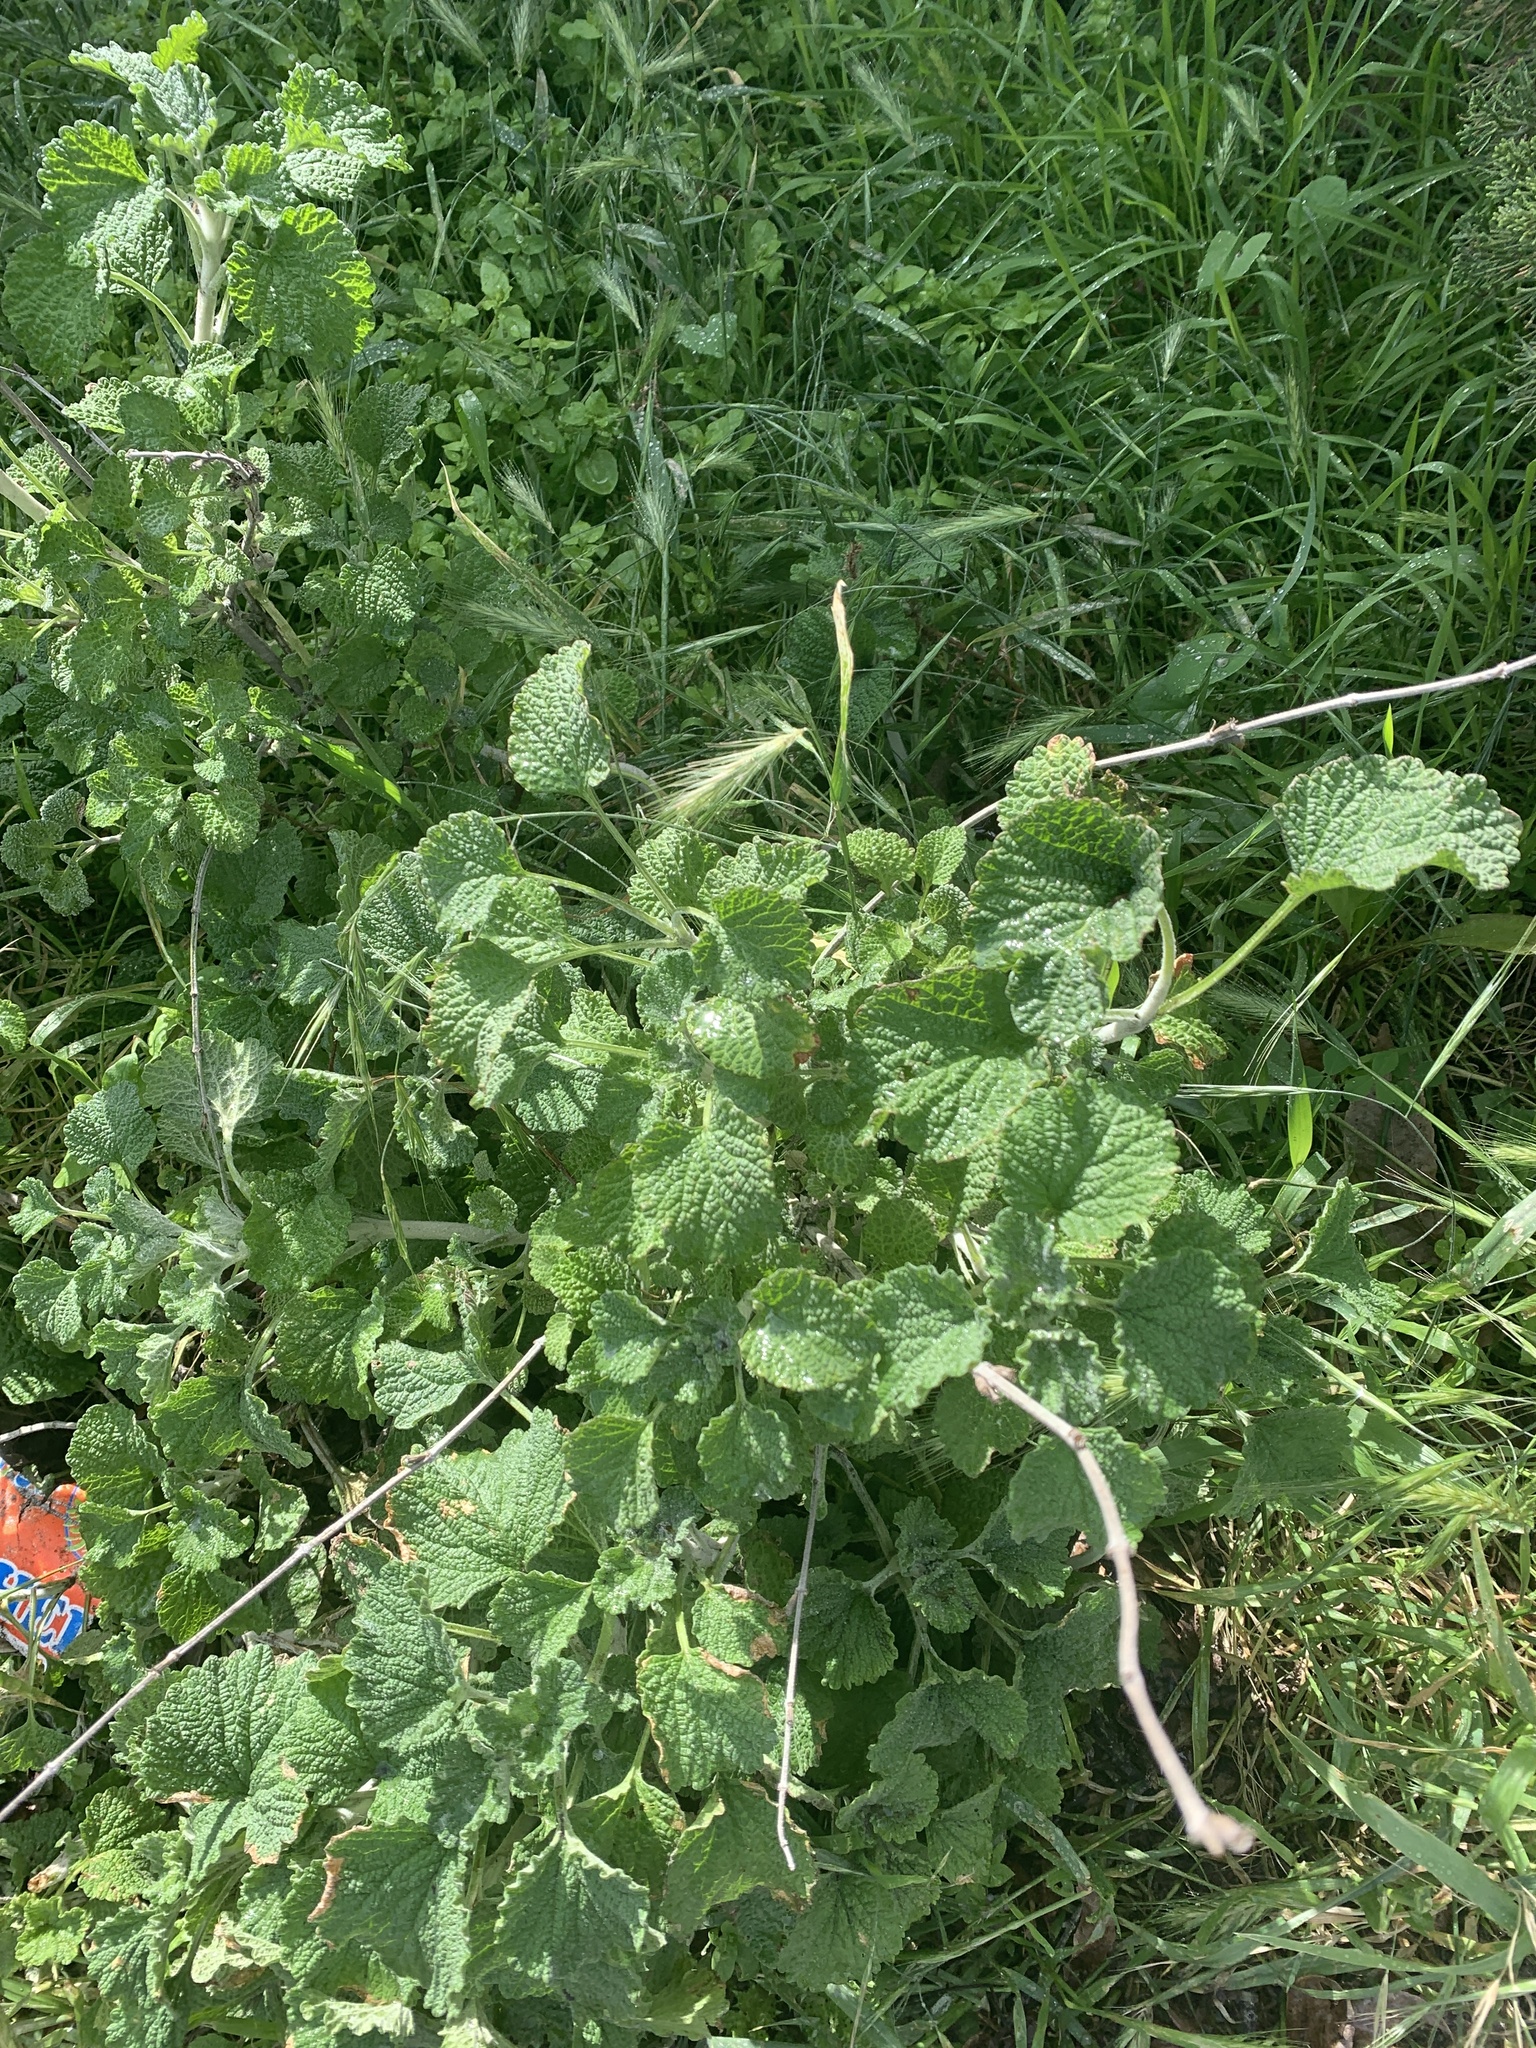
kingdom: Plantae
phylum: Tracheophyta
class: Magnoliopsida
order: Lamiales
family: Lamiaceae
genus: Marrubium
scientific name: Marrubium vulgare
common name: Horehound
